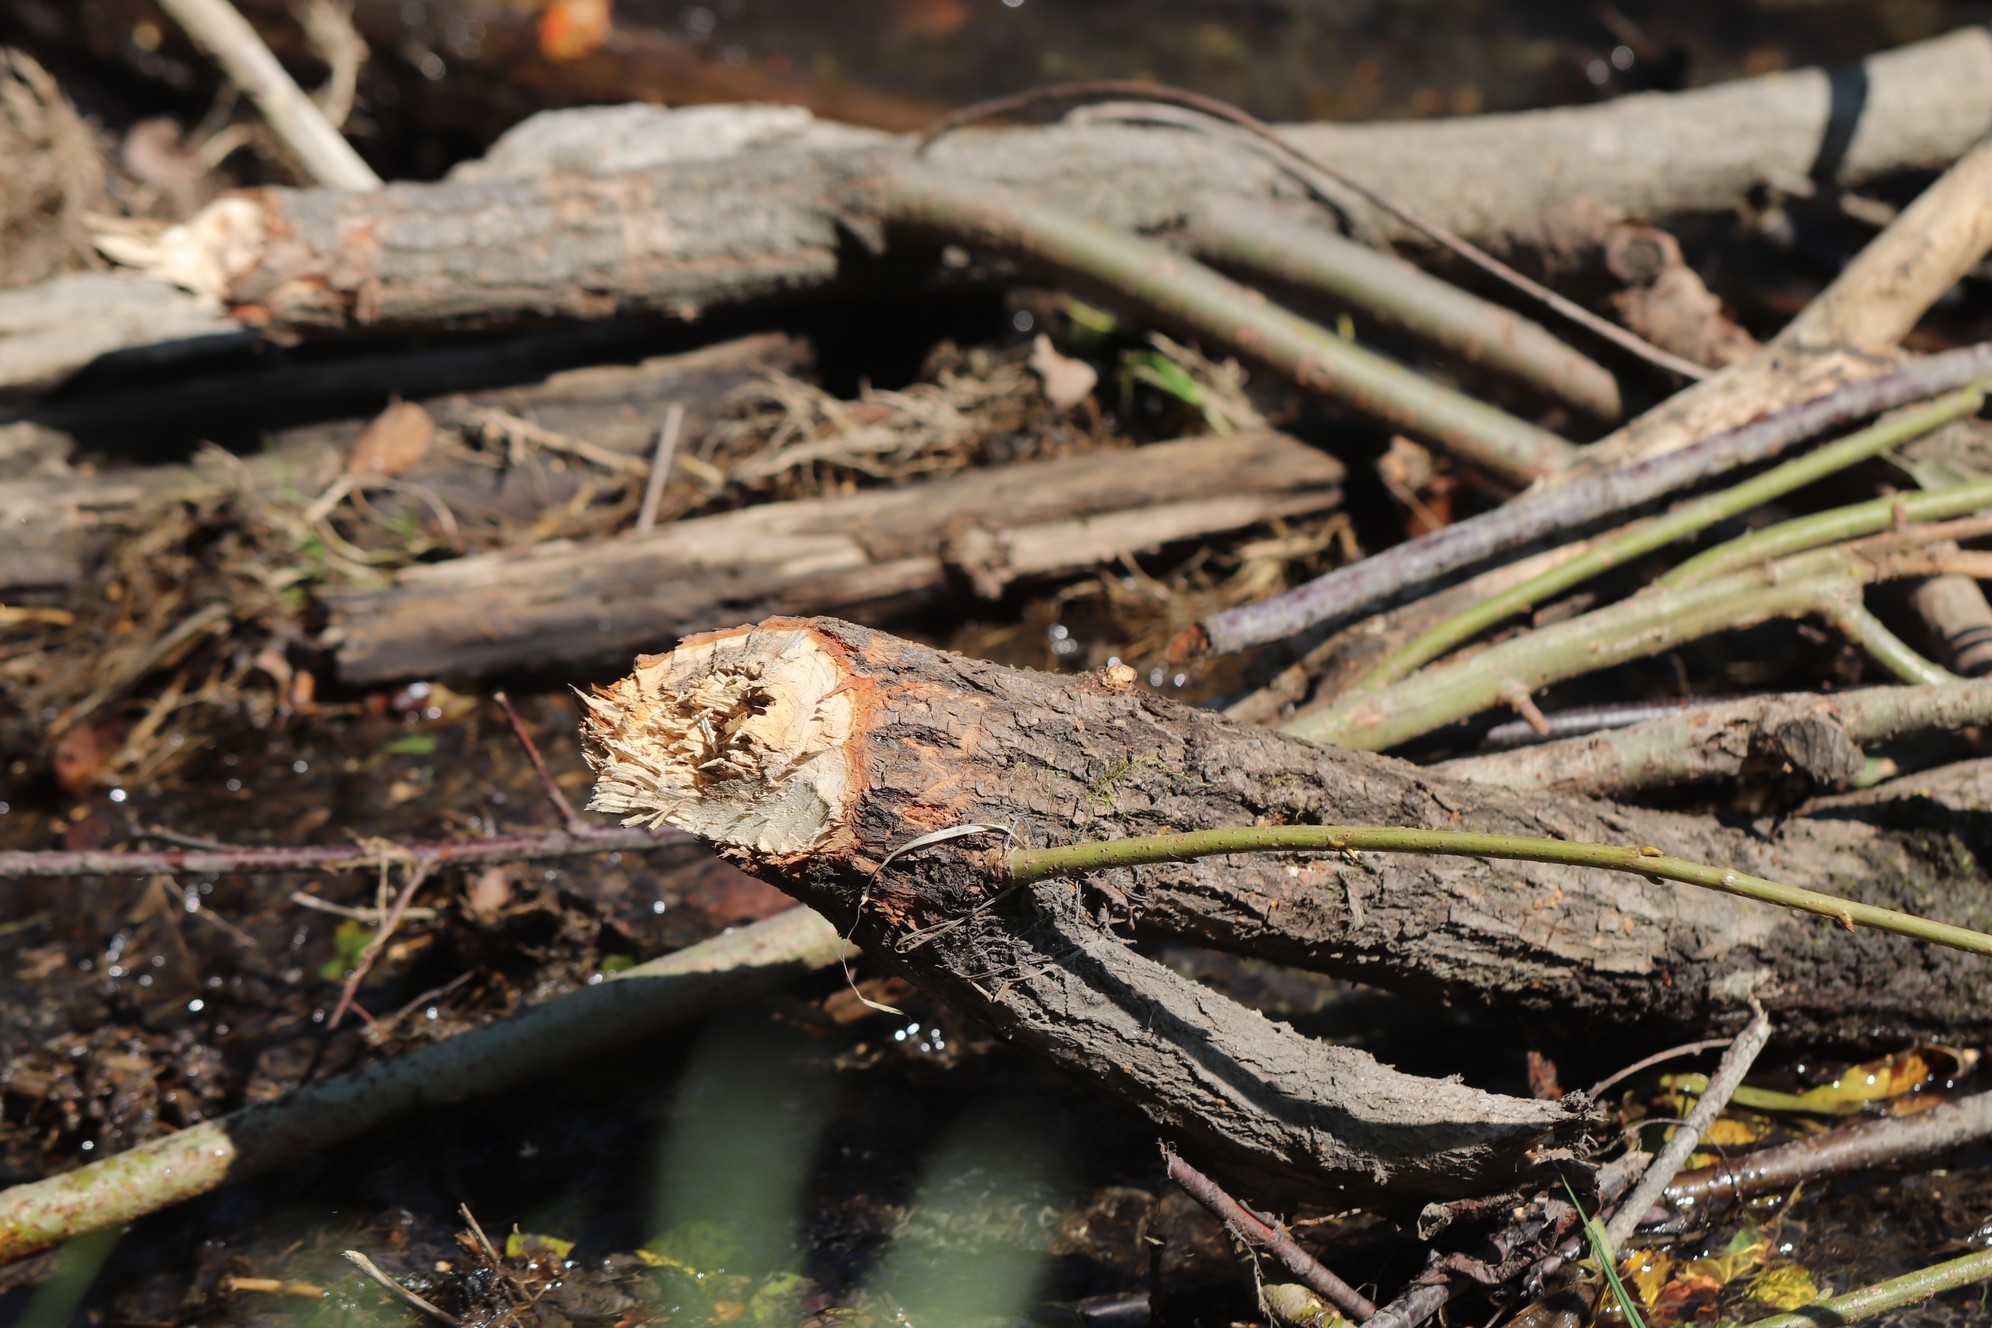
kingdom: Animalia
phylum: Chordata
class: Mammalia
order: Rodentia
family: Castoridae
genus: Castor
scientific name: Castor fiber
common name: Eurasian beaver
